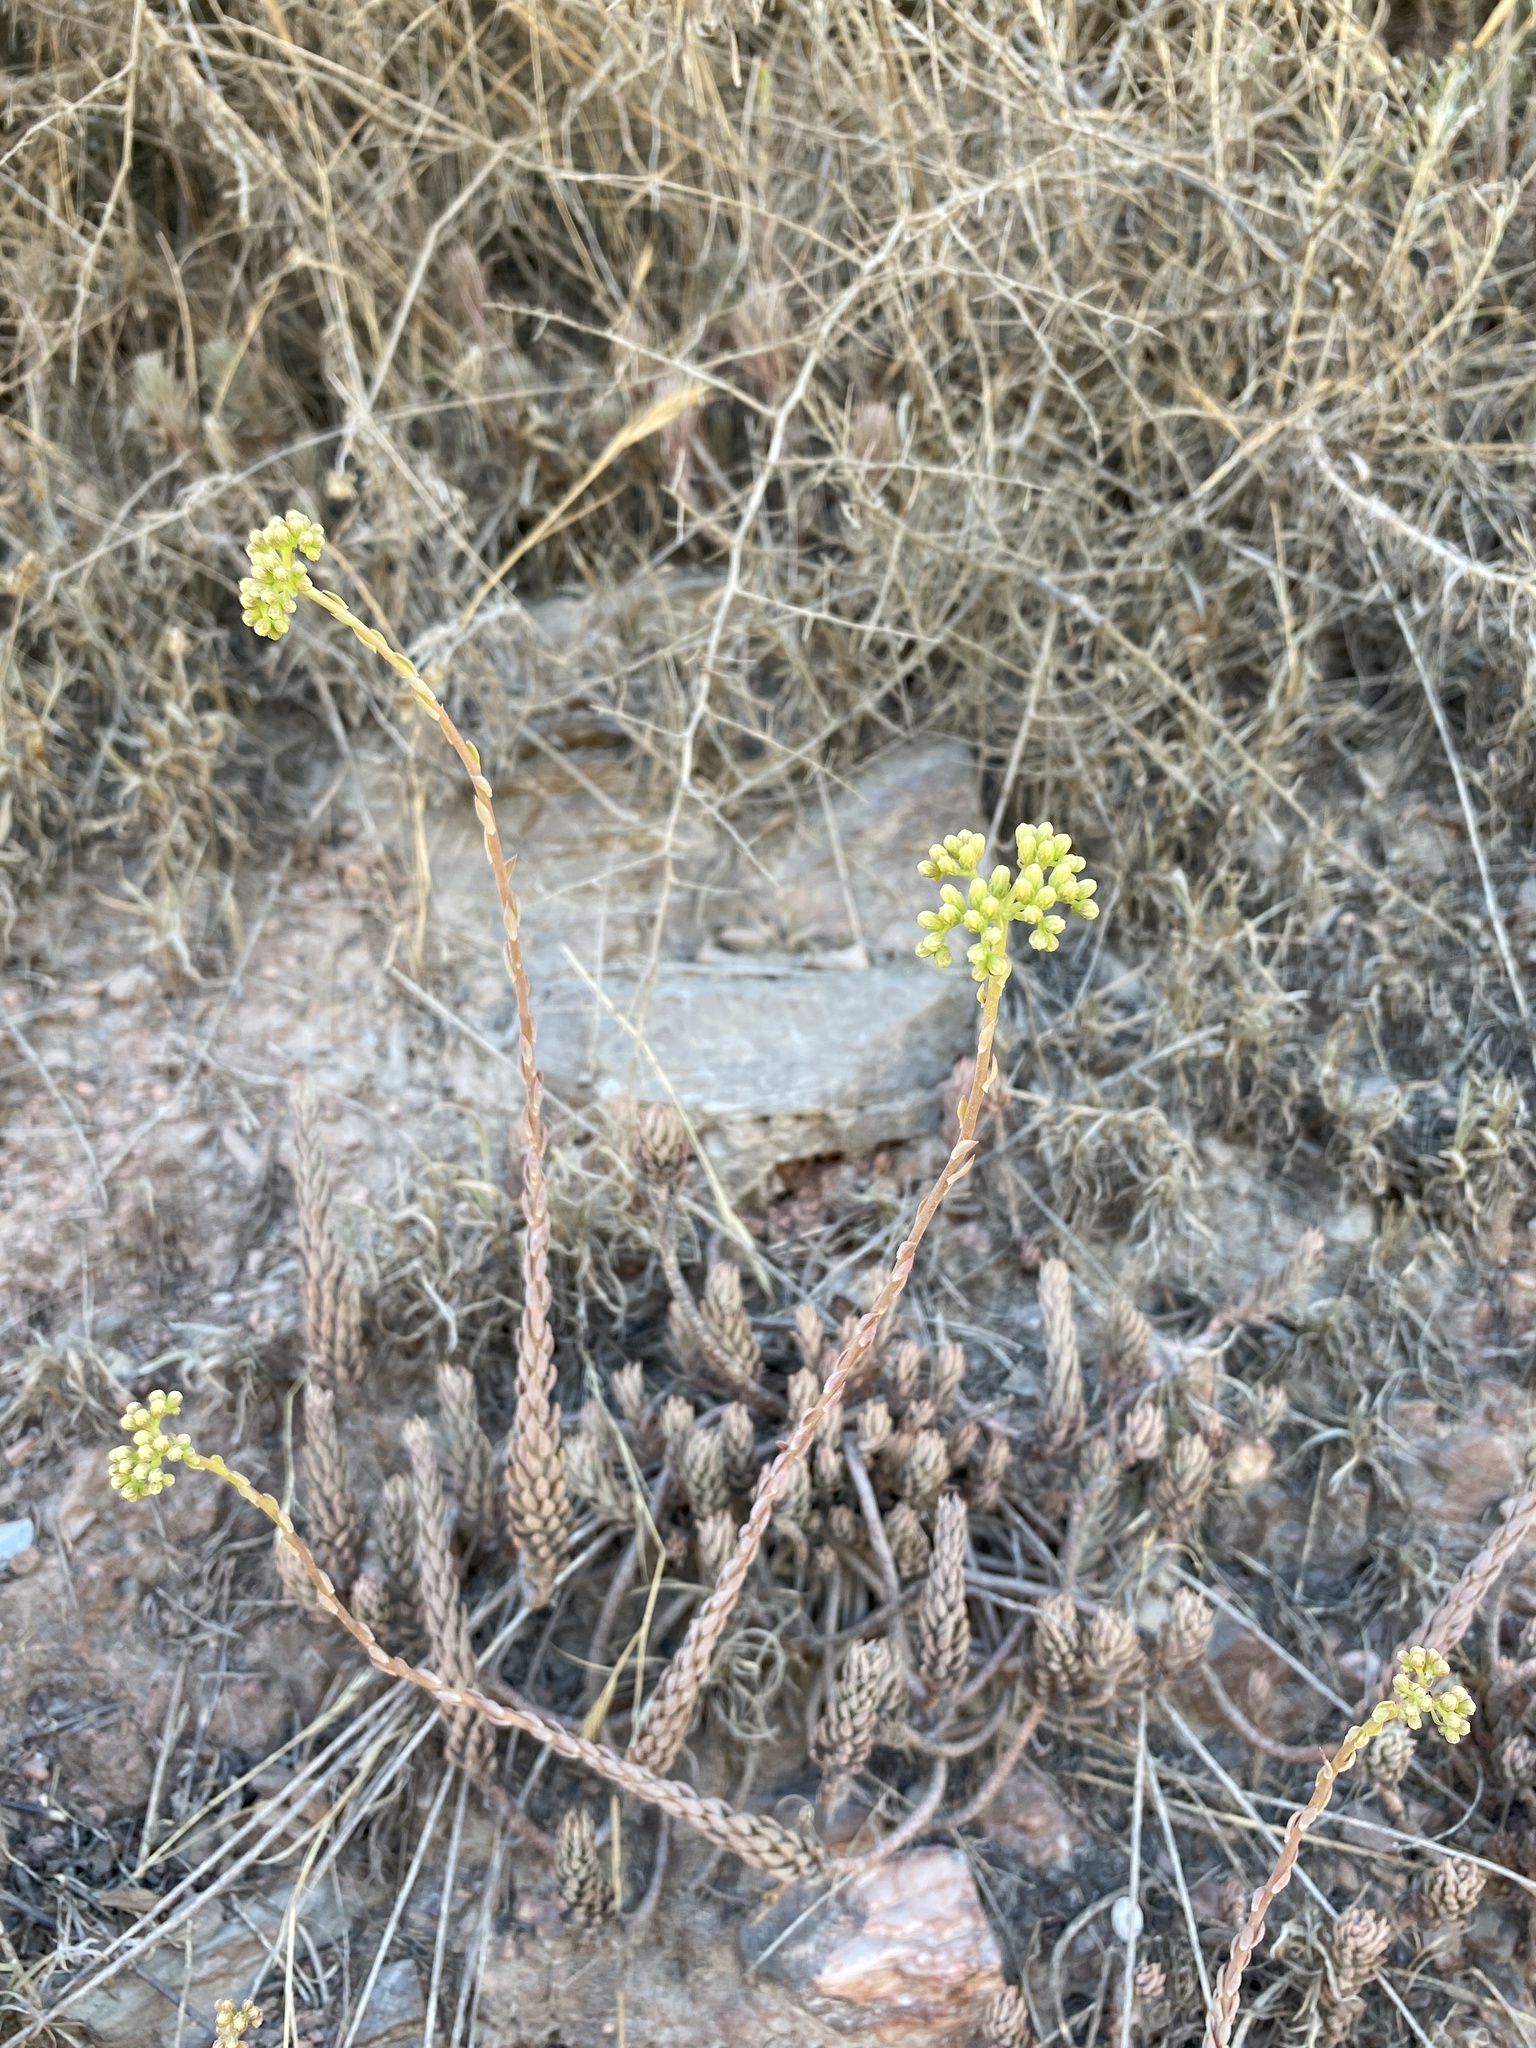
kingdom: Plantae
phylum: Tracheophyta
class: Magnoliopsida
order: Saxifragales
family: Crassulaceae
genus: Petrosedum
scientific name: Petrosedum sediforme
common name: Pale stonecrop
